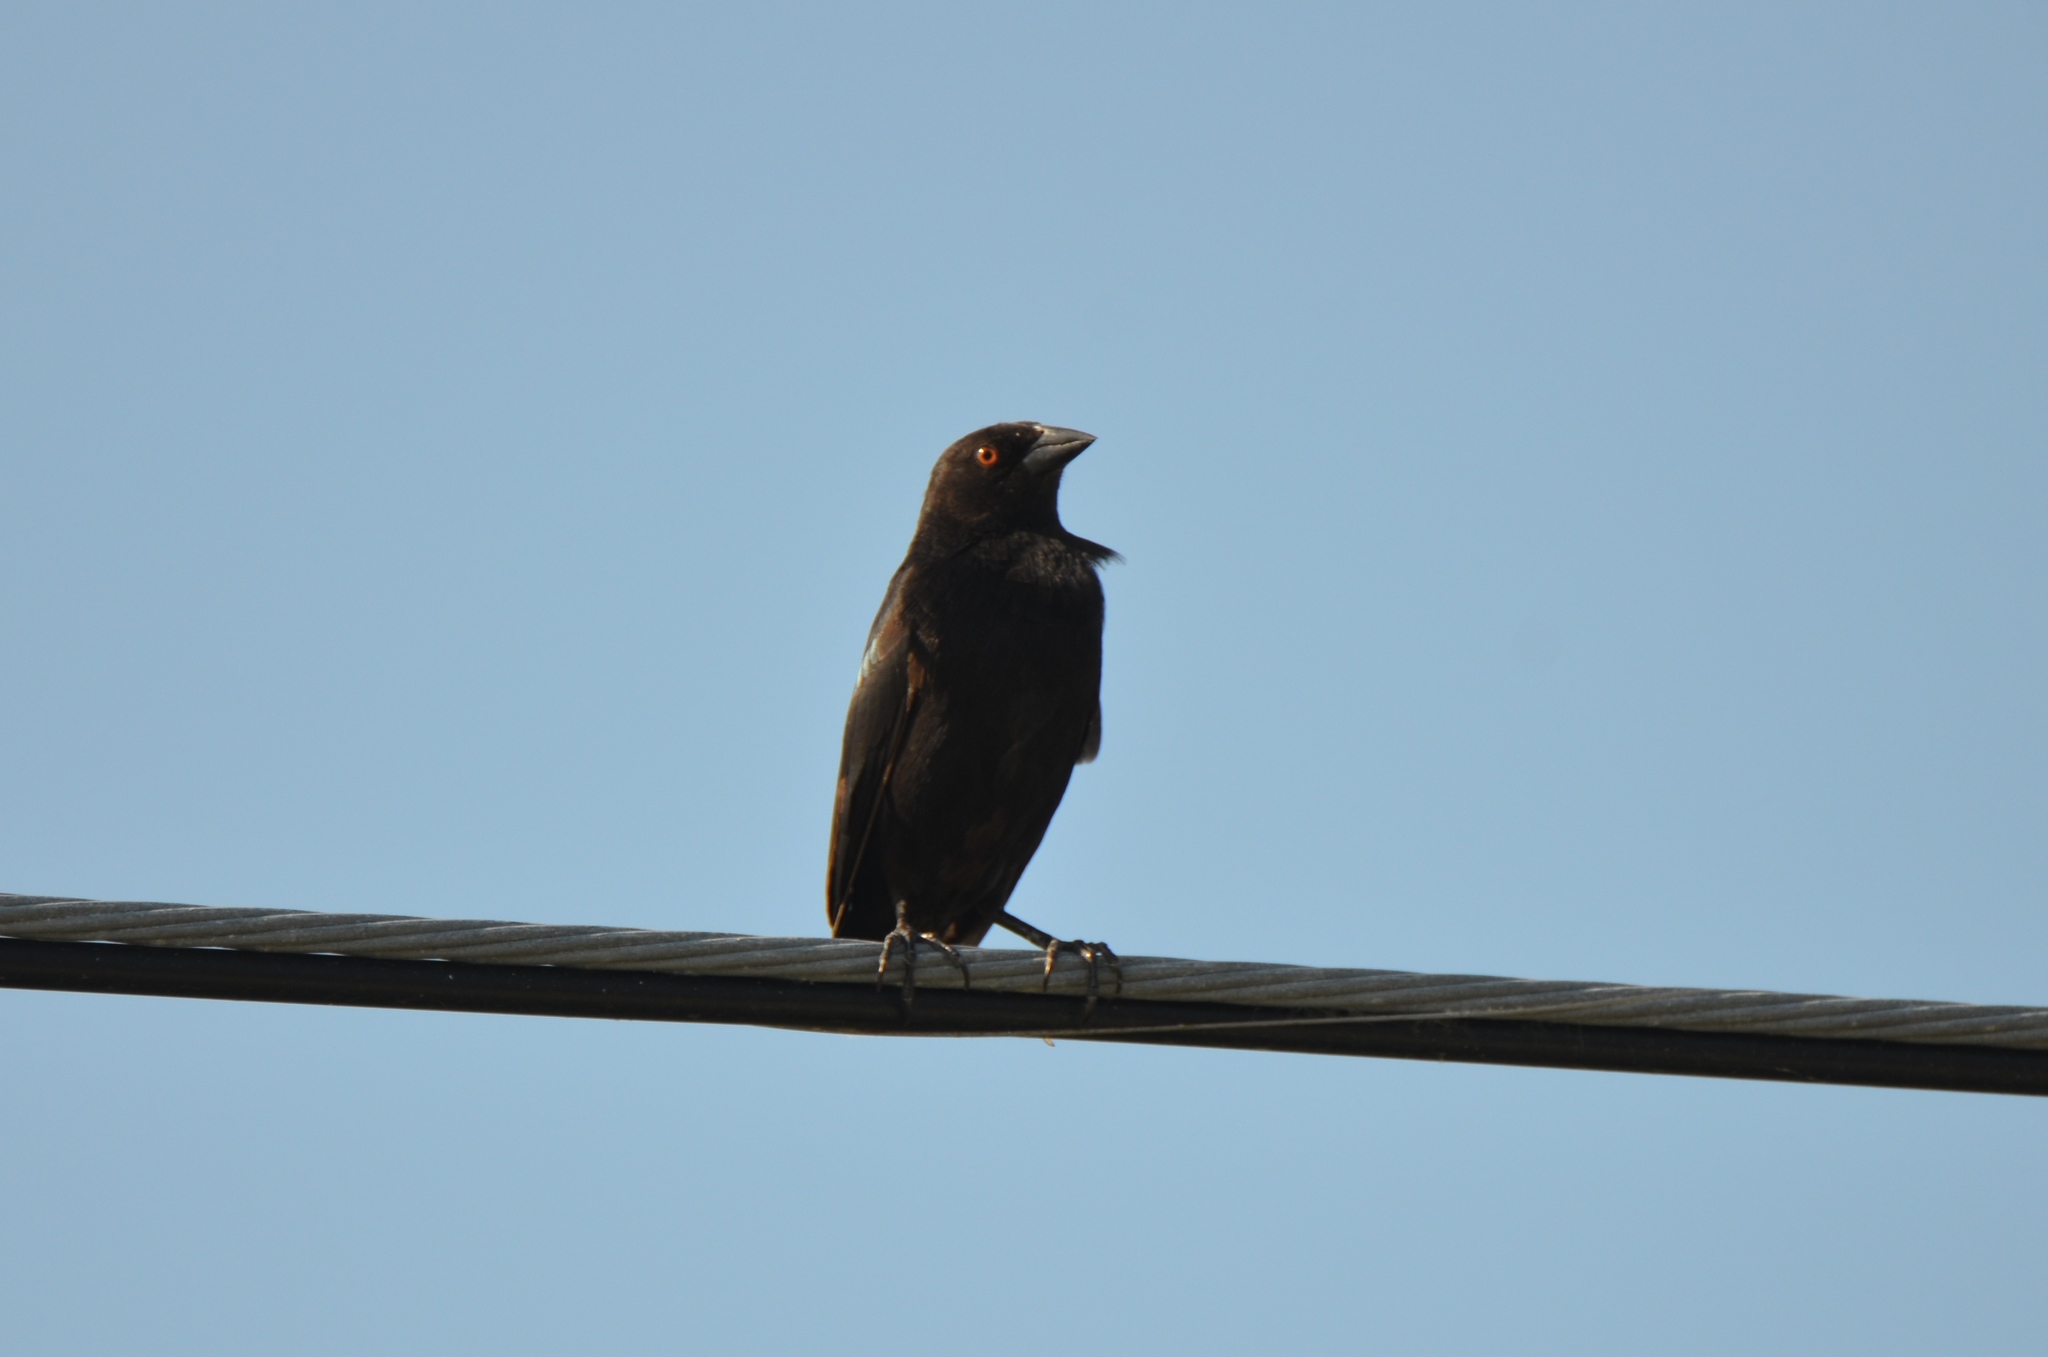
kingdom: Animalia
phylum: Chordata
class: Aves
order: Passeriformes
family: Icteridae
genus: Molothrus
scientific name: Molothrus aeneus
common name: Bronzed cowbird
